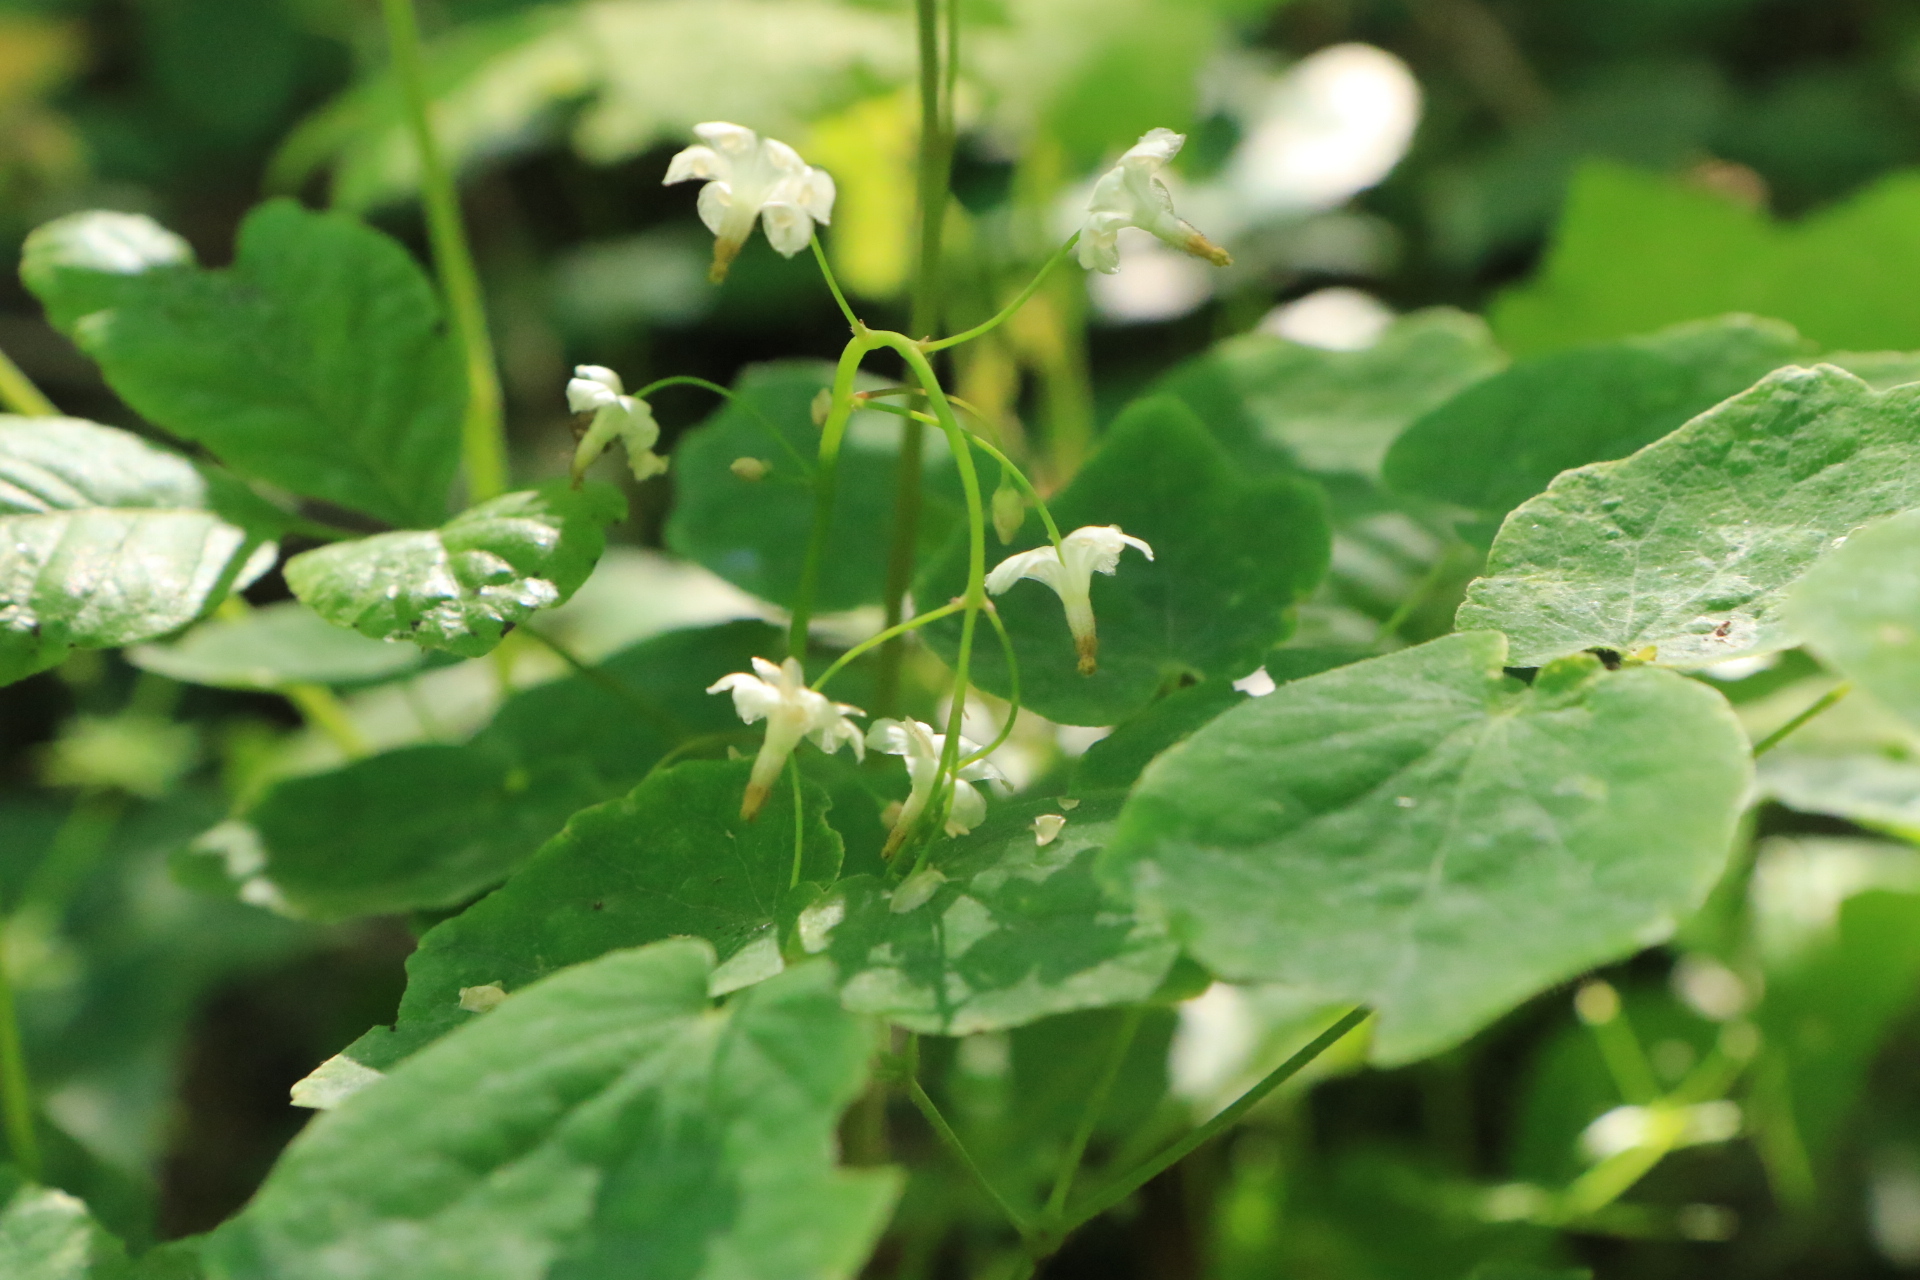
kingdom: Plantae
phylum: Tracheophyta
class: Magnoliopsida
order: Ranunculales
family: Berberidaceae
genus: Vancouveria
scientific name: Vancouveria hexandra
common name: Northern inside-out-flower
